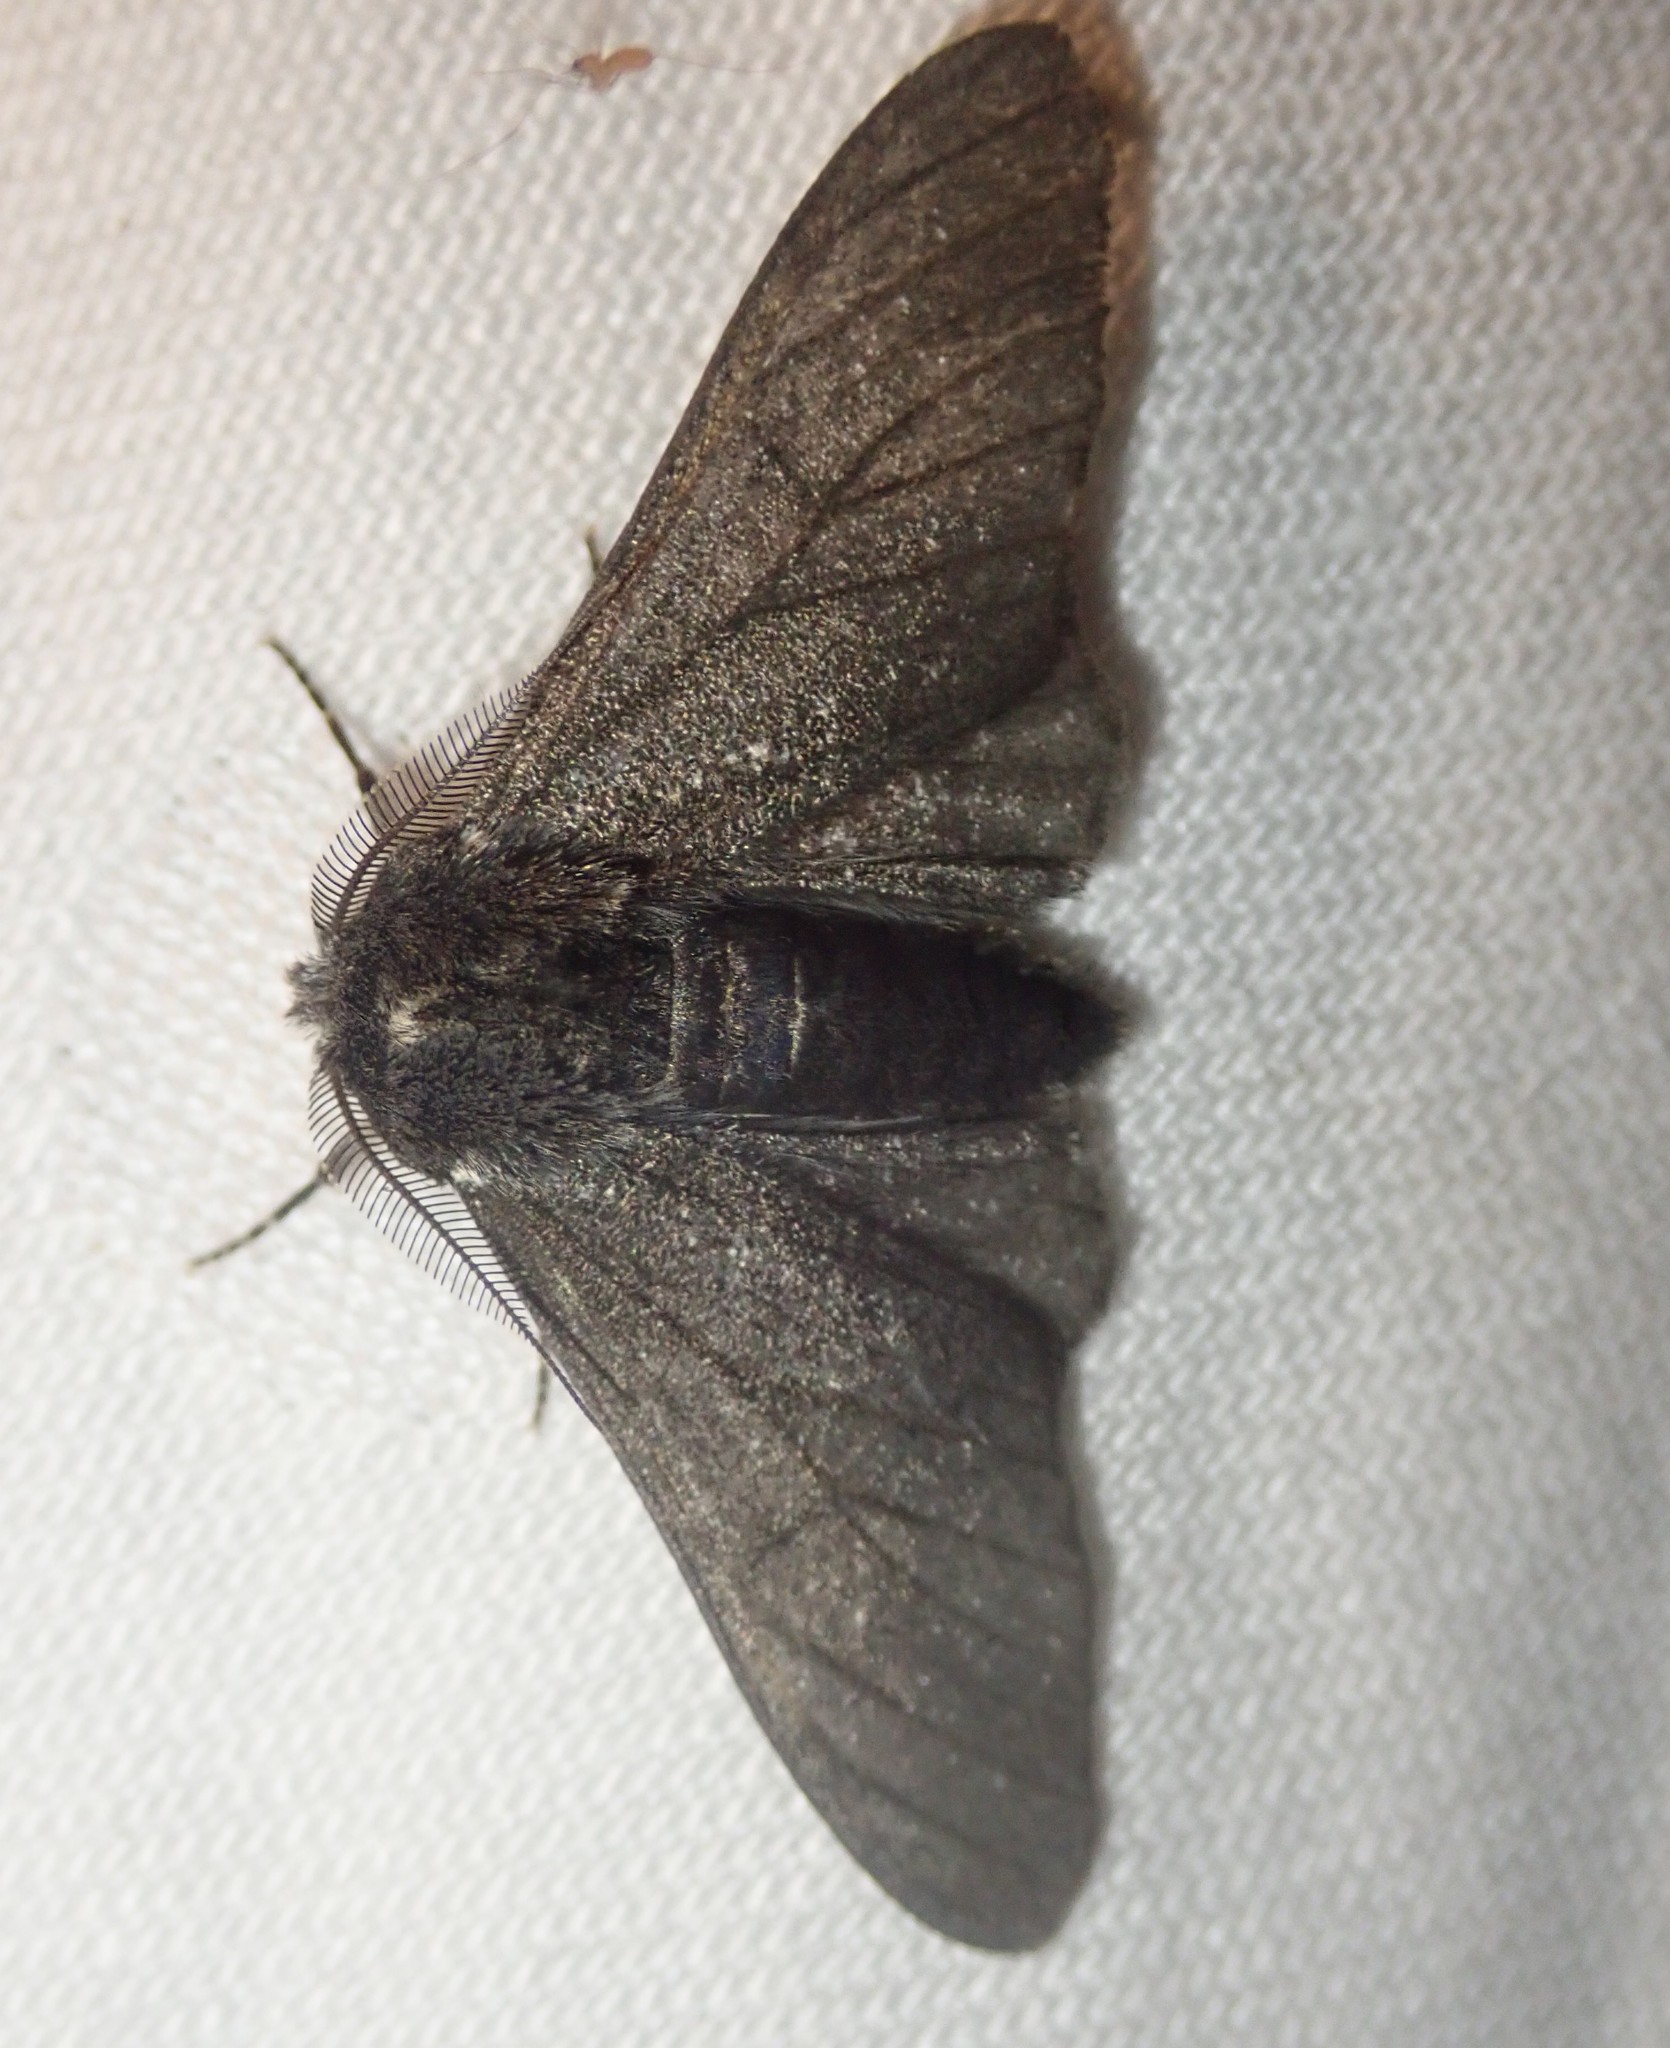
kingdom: Animalia
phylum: Arthropoda
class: Insecta
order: Lepidoptera
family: Geometridae
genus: Biston
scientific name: Biston betularia
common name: Peppered moth
